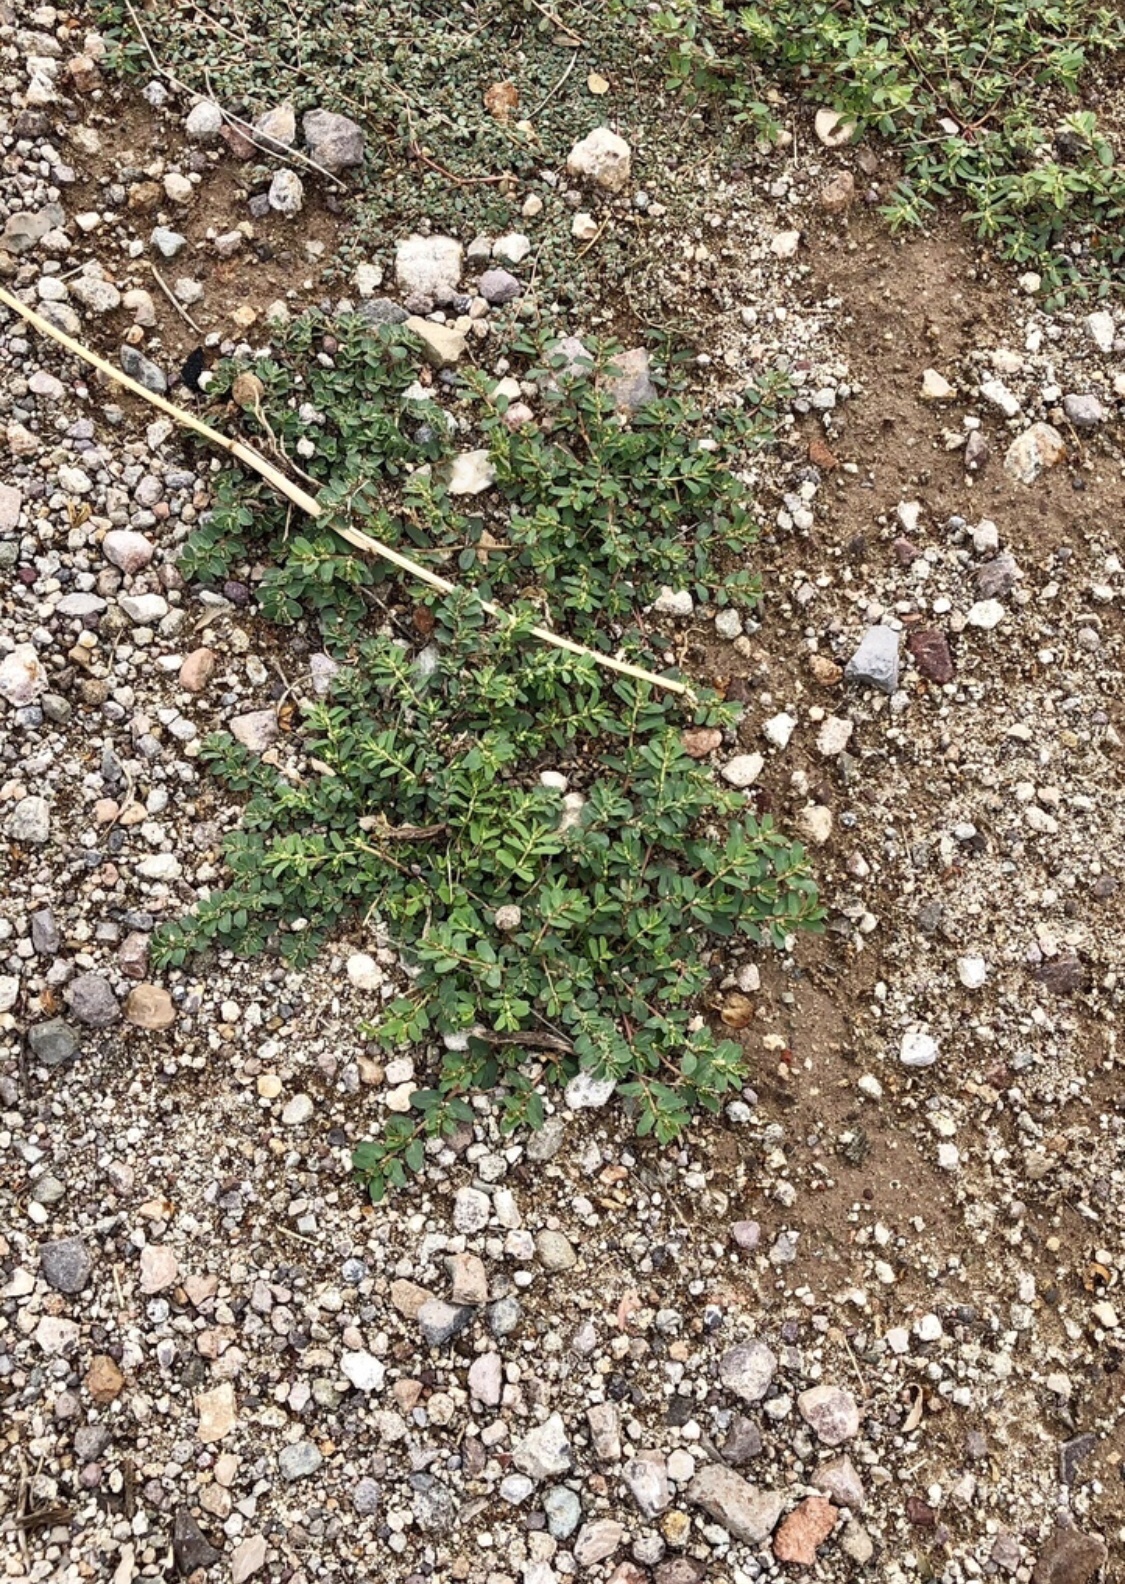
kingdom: Plantae
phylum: Tracheophyta
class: Magnoliopsida
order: Malpighiales
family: Euphorbiaceae
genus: Euphorbia
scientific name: Euphorbia stictospora
